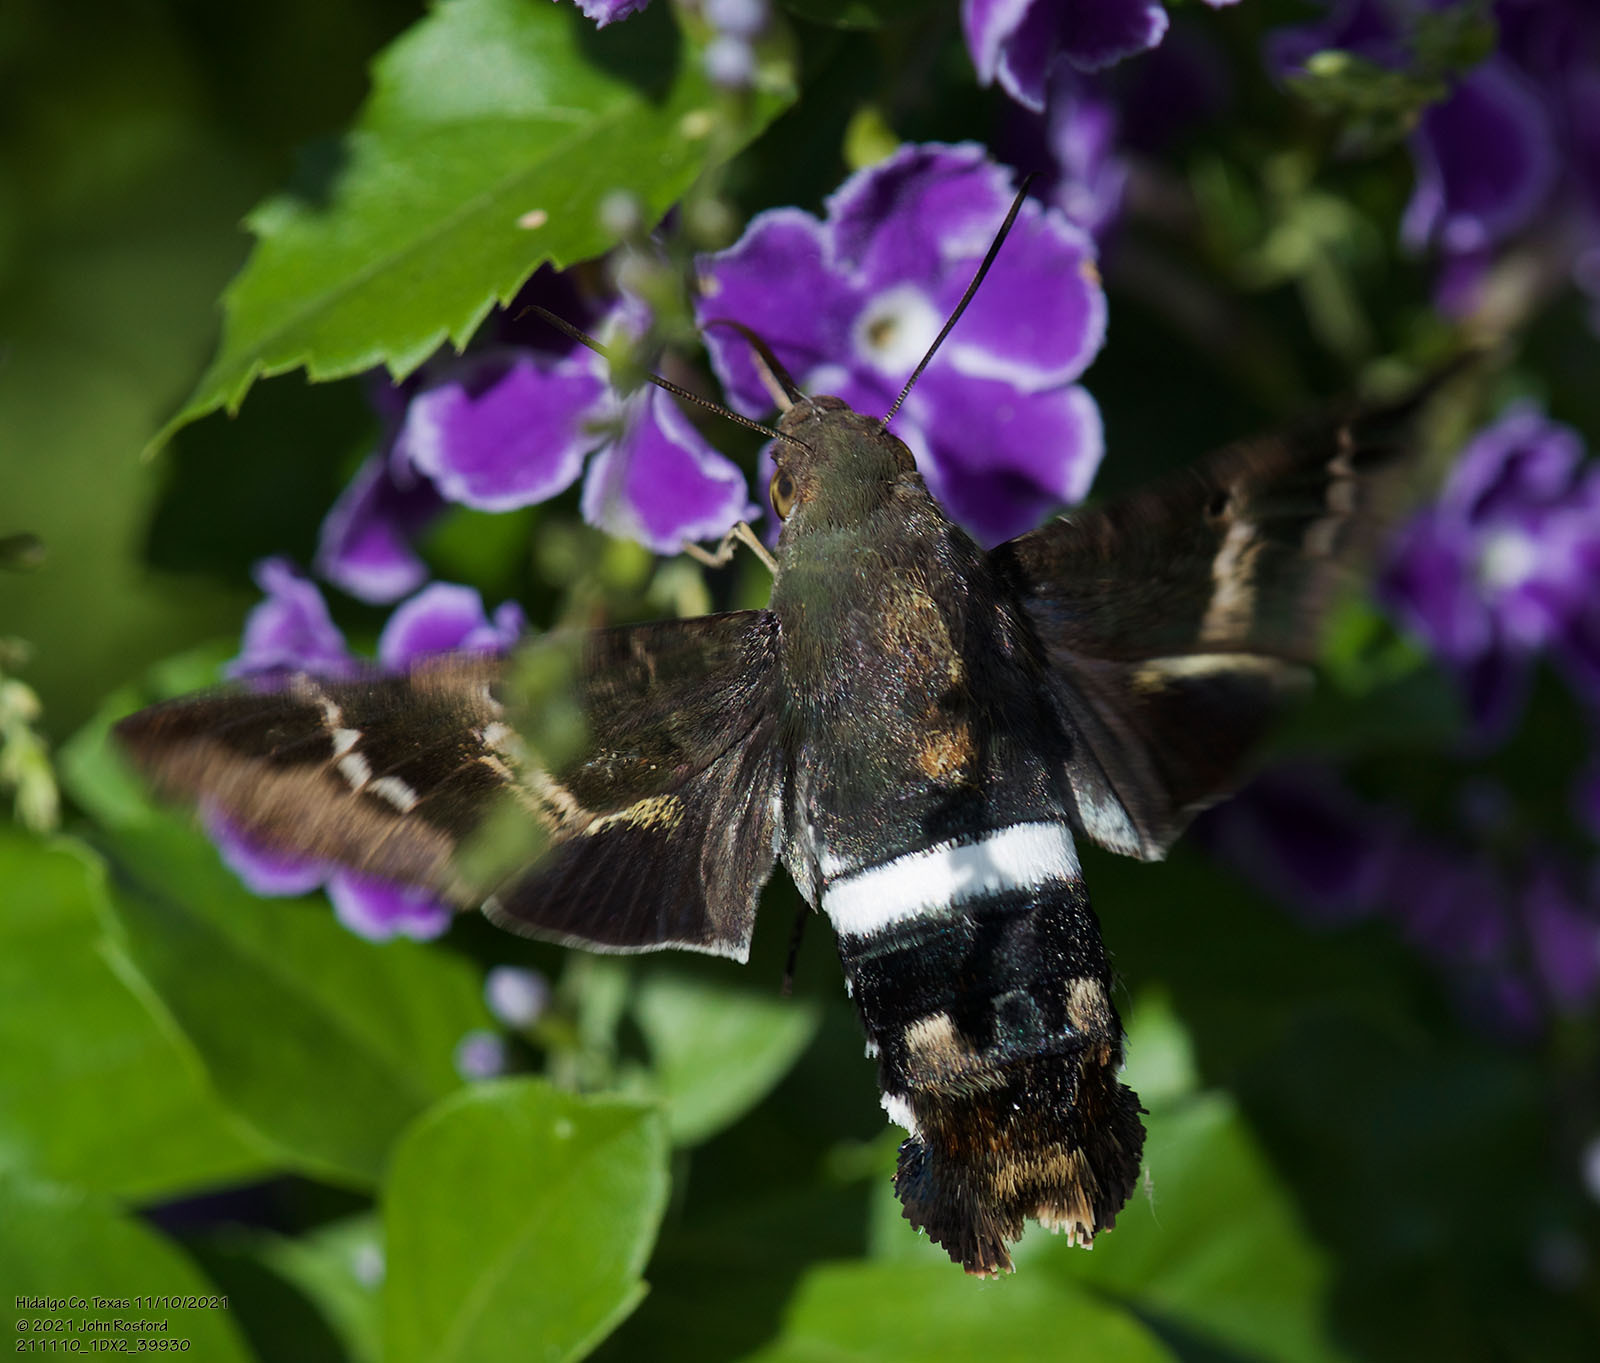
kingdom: Animalia
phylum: Arthropoda
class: Insecta
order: Lepidoptera
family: Sphingidae
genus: Aellopos
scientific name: Aellopos titan
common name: Titan sphinx
